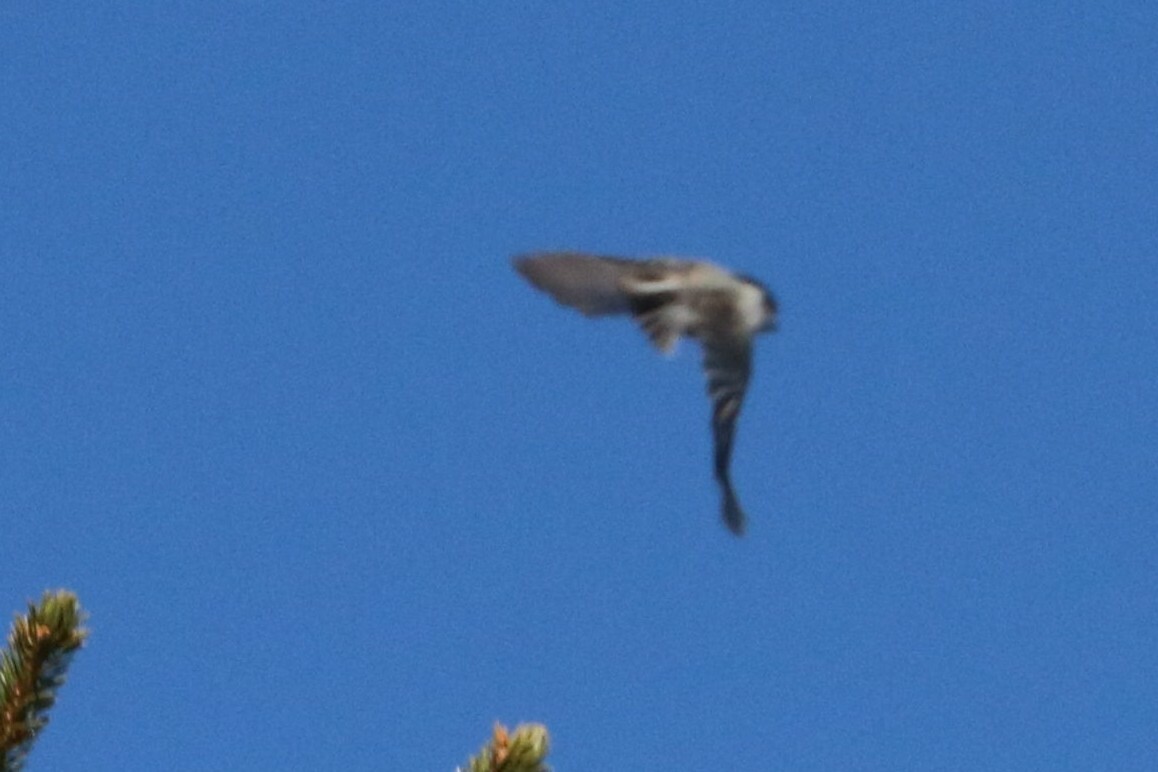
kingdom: Animalia
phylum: Chordata
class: Aves
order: Passeriformes
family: Paridae
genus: Poecile
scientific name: Poecile montanus
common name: Willow tit
